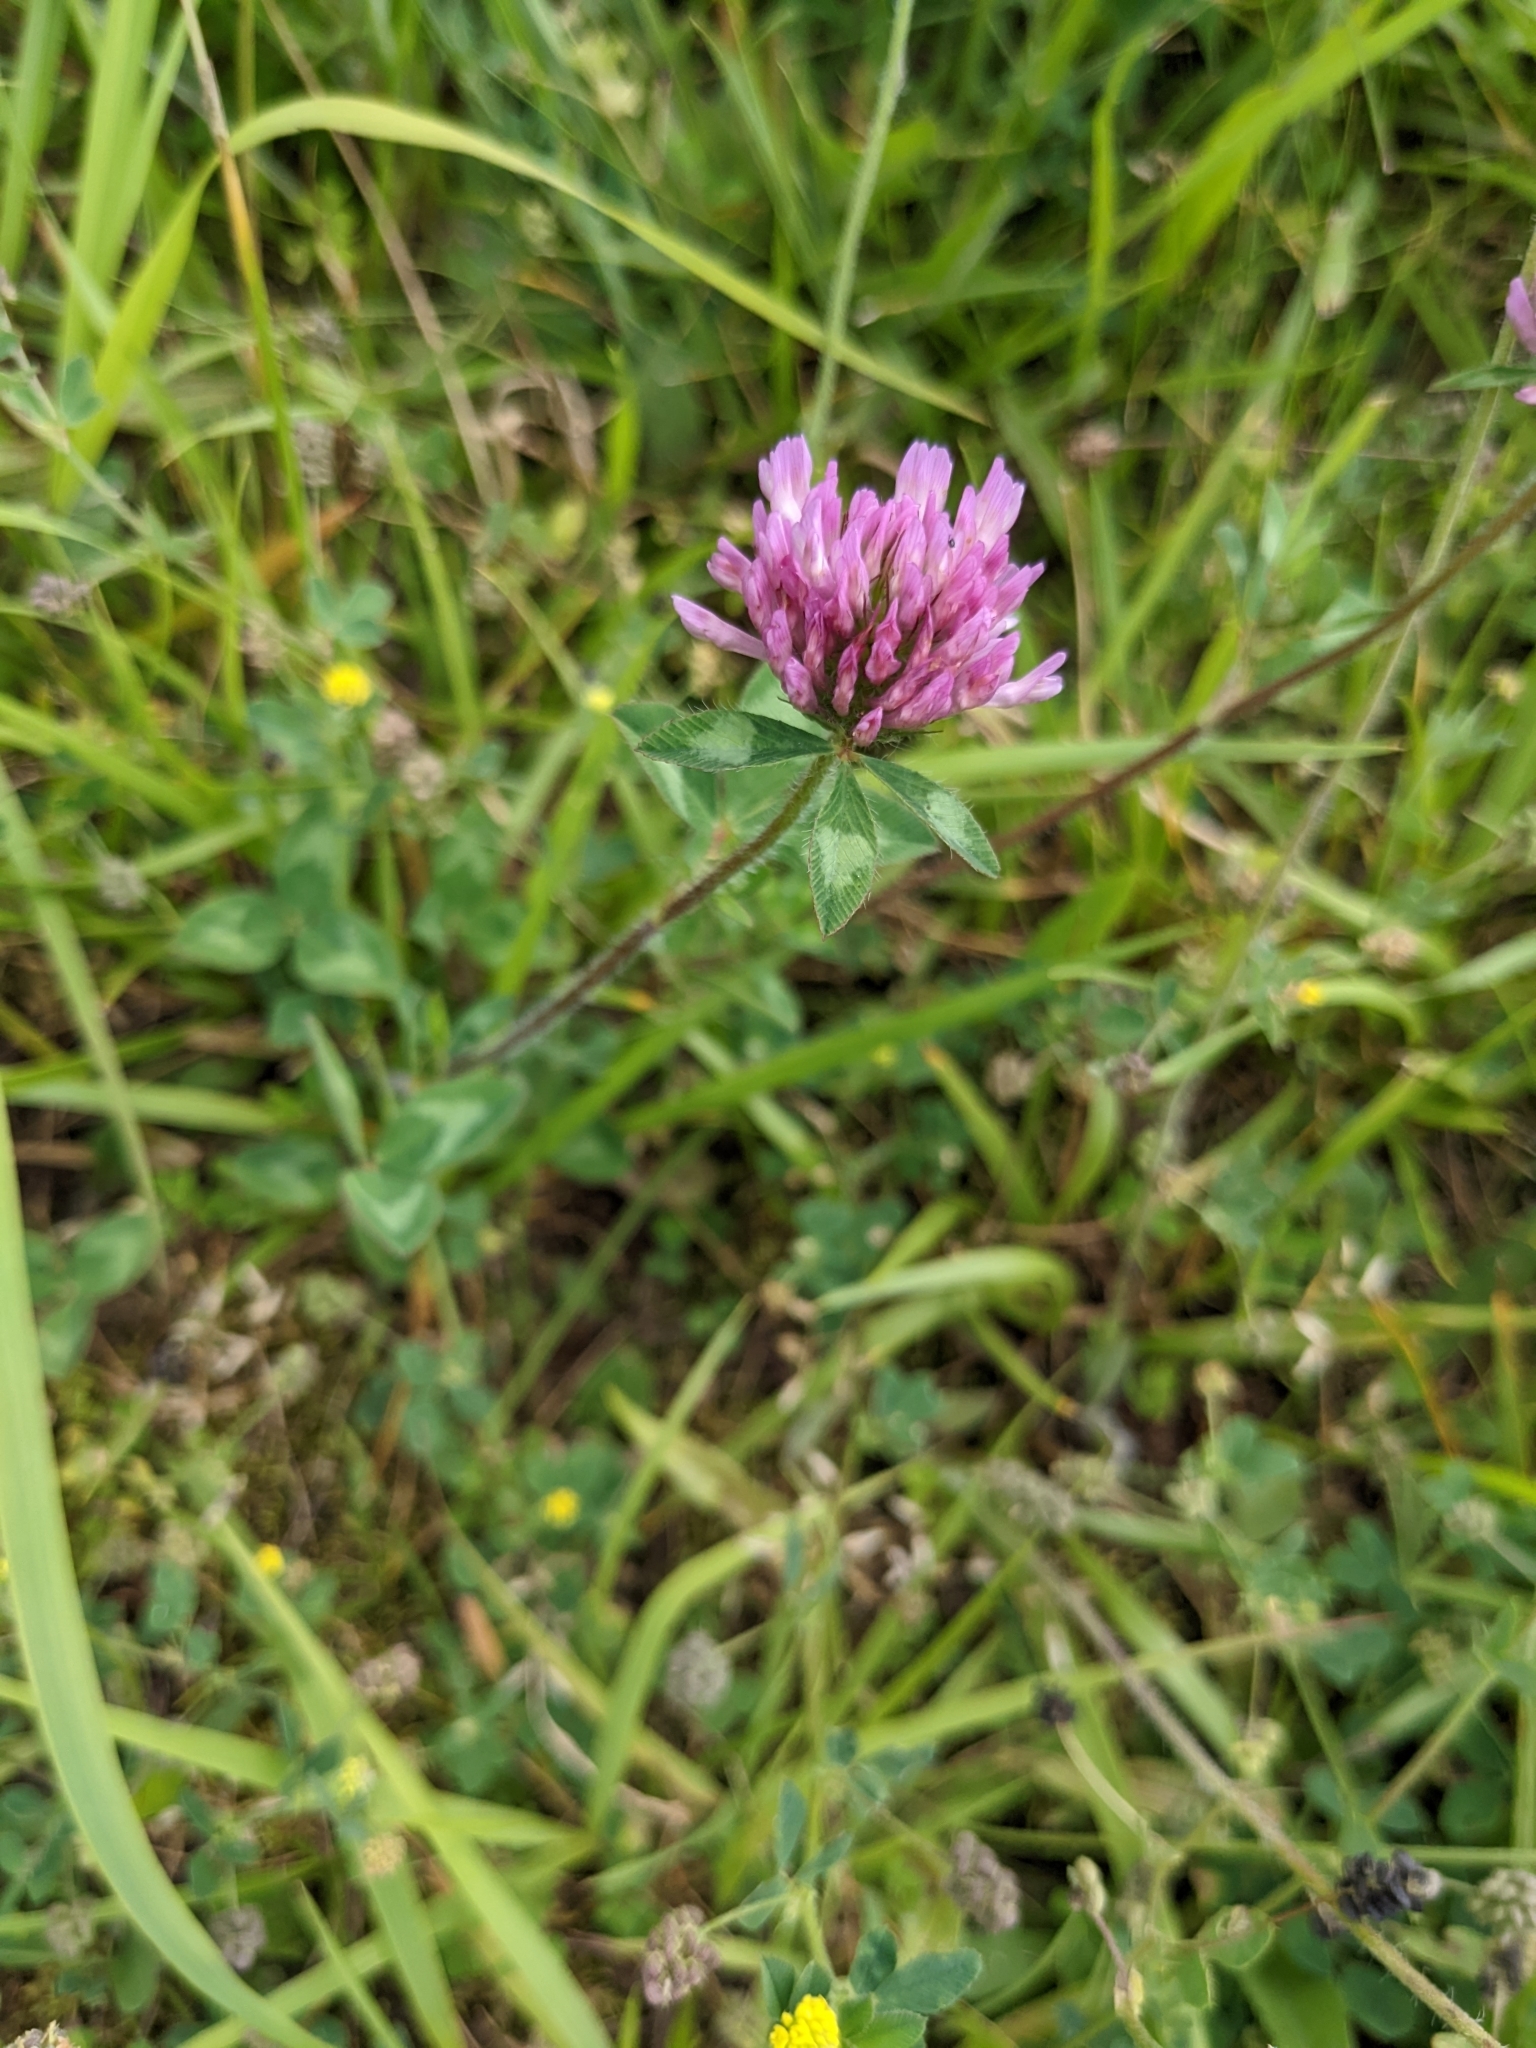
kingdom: Plantae
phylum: Tracheophyta
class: Magnoliopsida
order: Fabales
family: Fabaceae
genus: Trifolium
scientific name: Trifolium pratense
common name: Red clover
